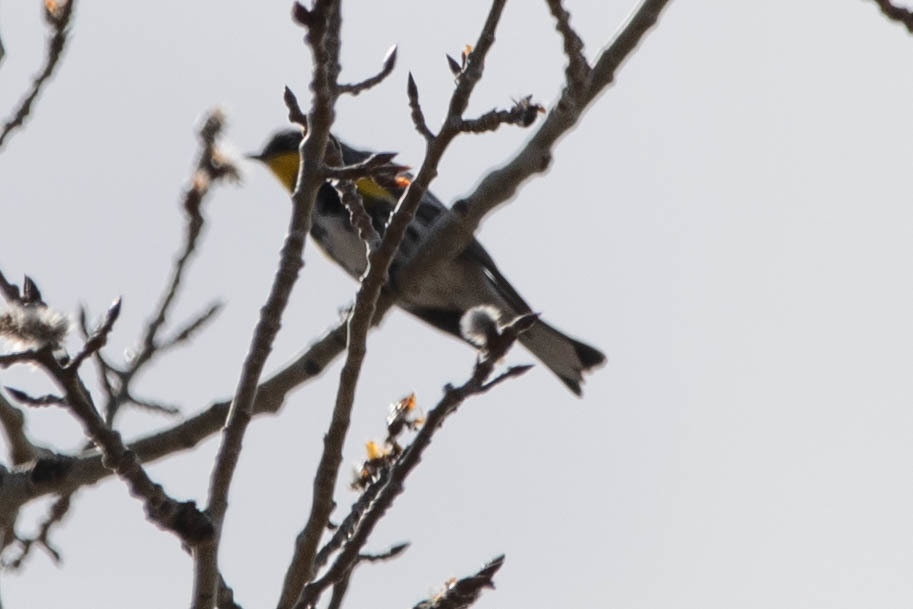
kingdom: Animalia
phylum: Chordata
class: Aves
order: Passeriformes
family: Parulidae
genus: Setophaga
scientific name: Setophaga auduboni
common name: Audubon's warbler
